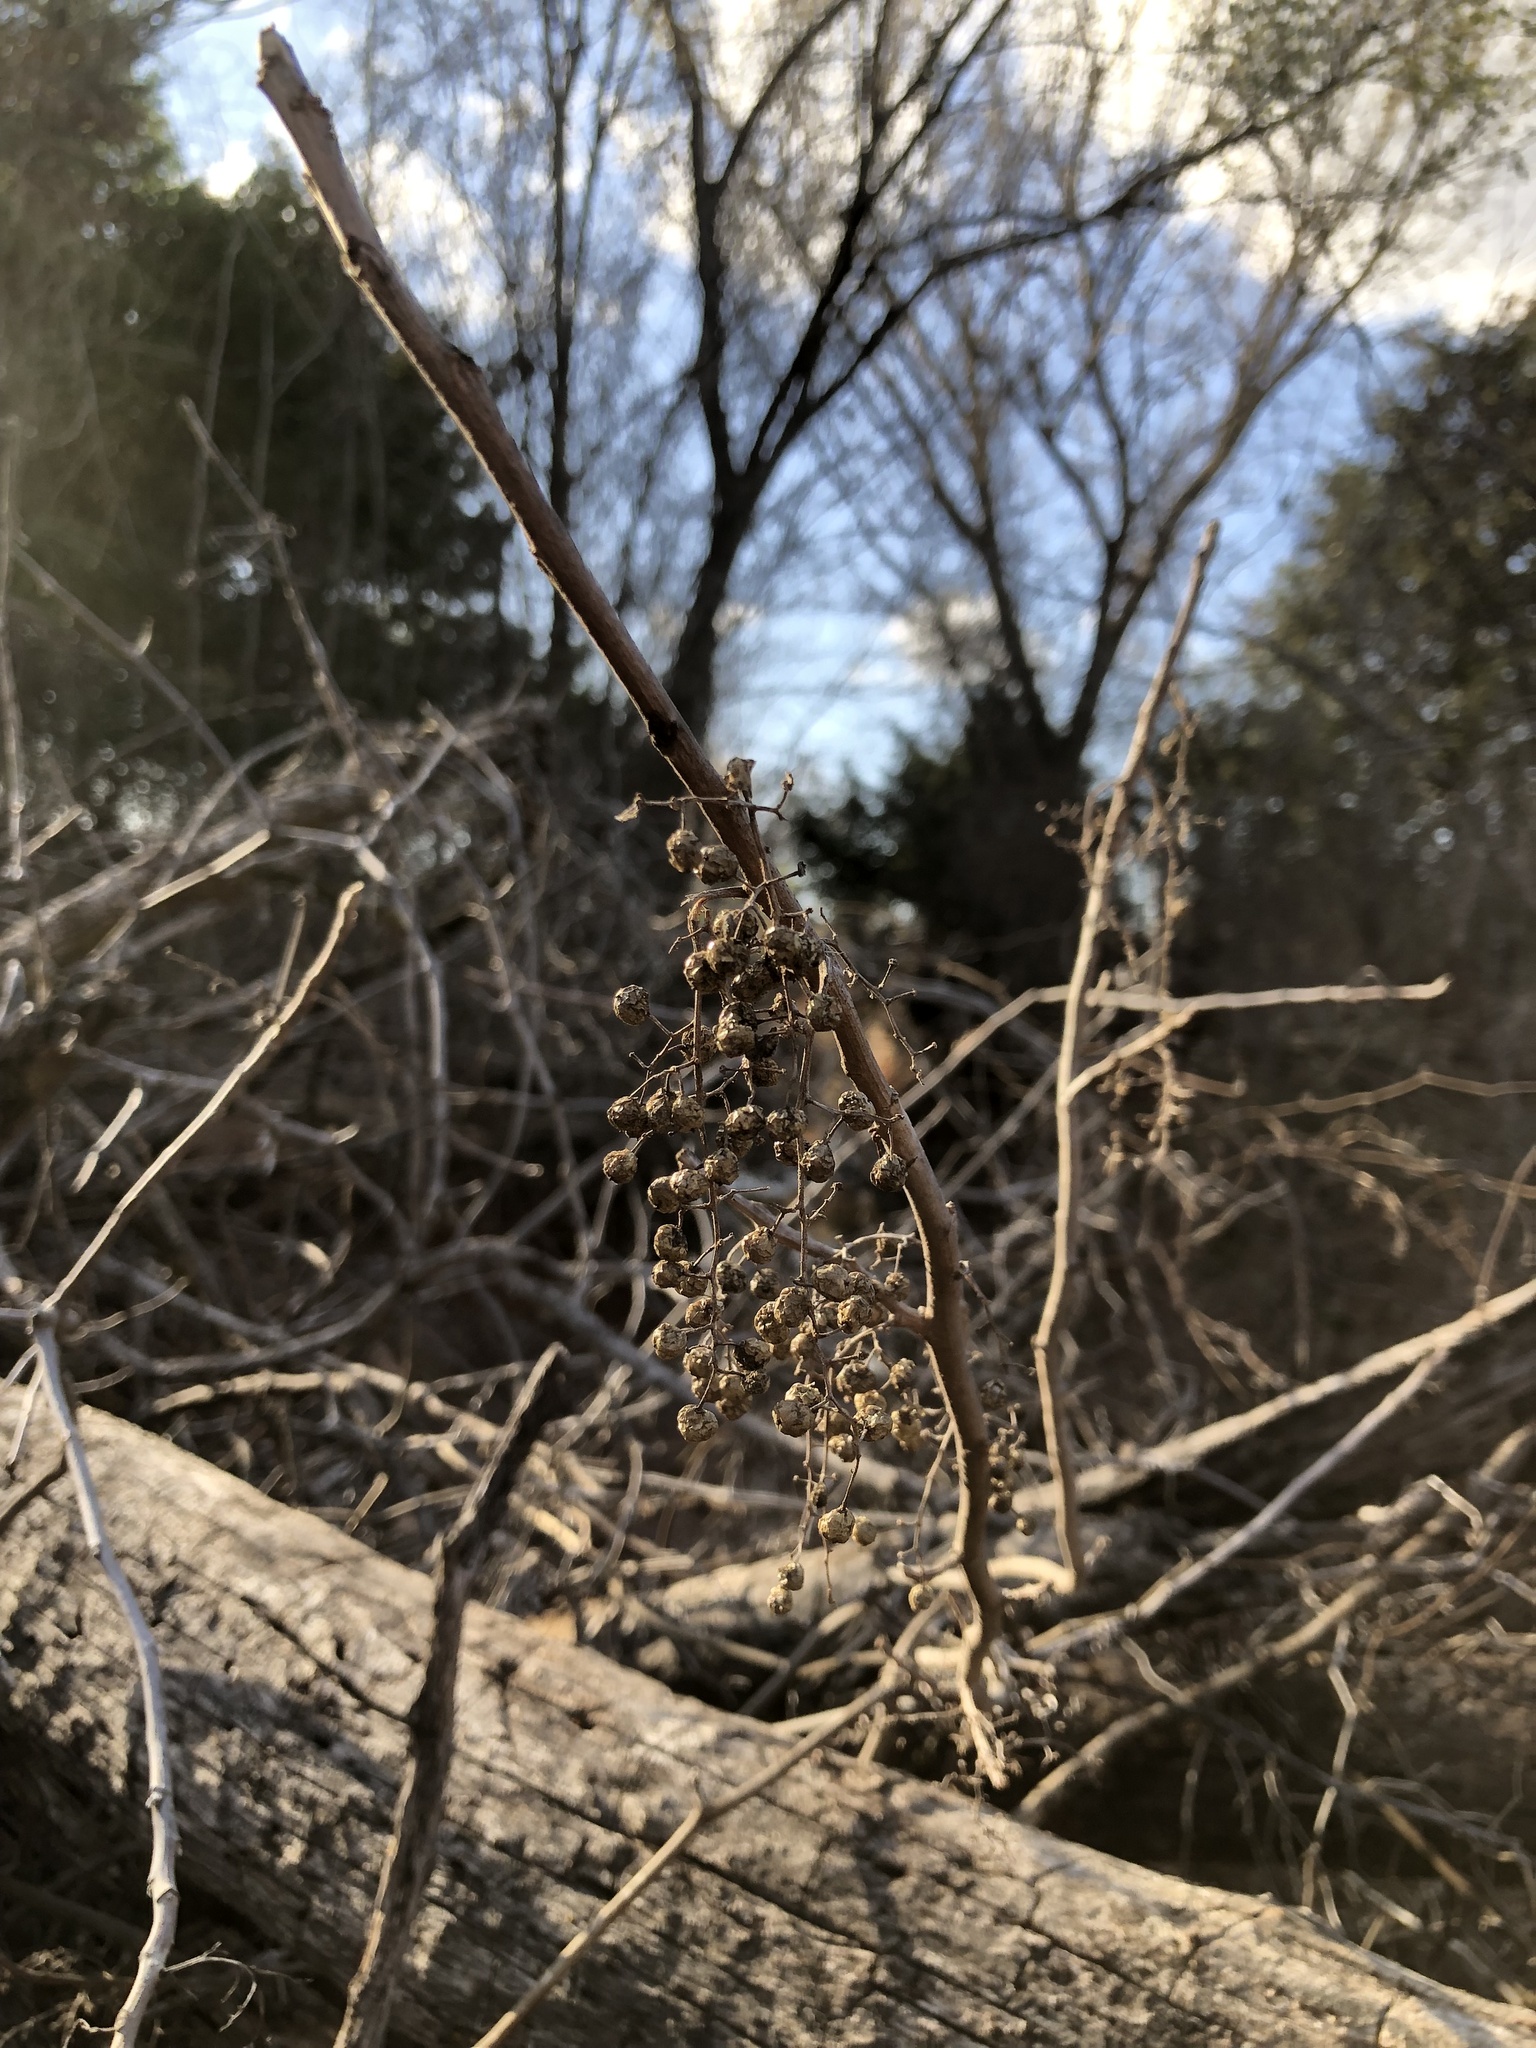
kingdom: Plantae
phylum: Tracheophyta
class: Magnoliopsida
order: Sapindales
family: Anacardiaceae
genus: Toxicodendron
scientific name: Toxicodendron radicans
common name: Poison ivy
